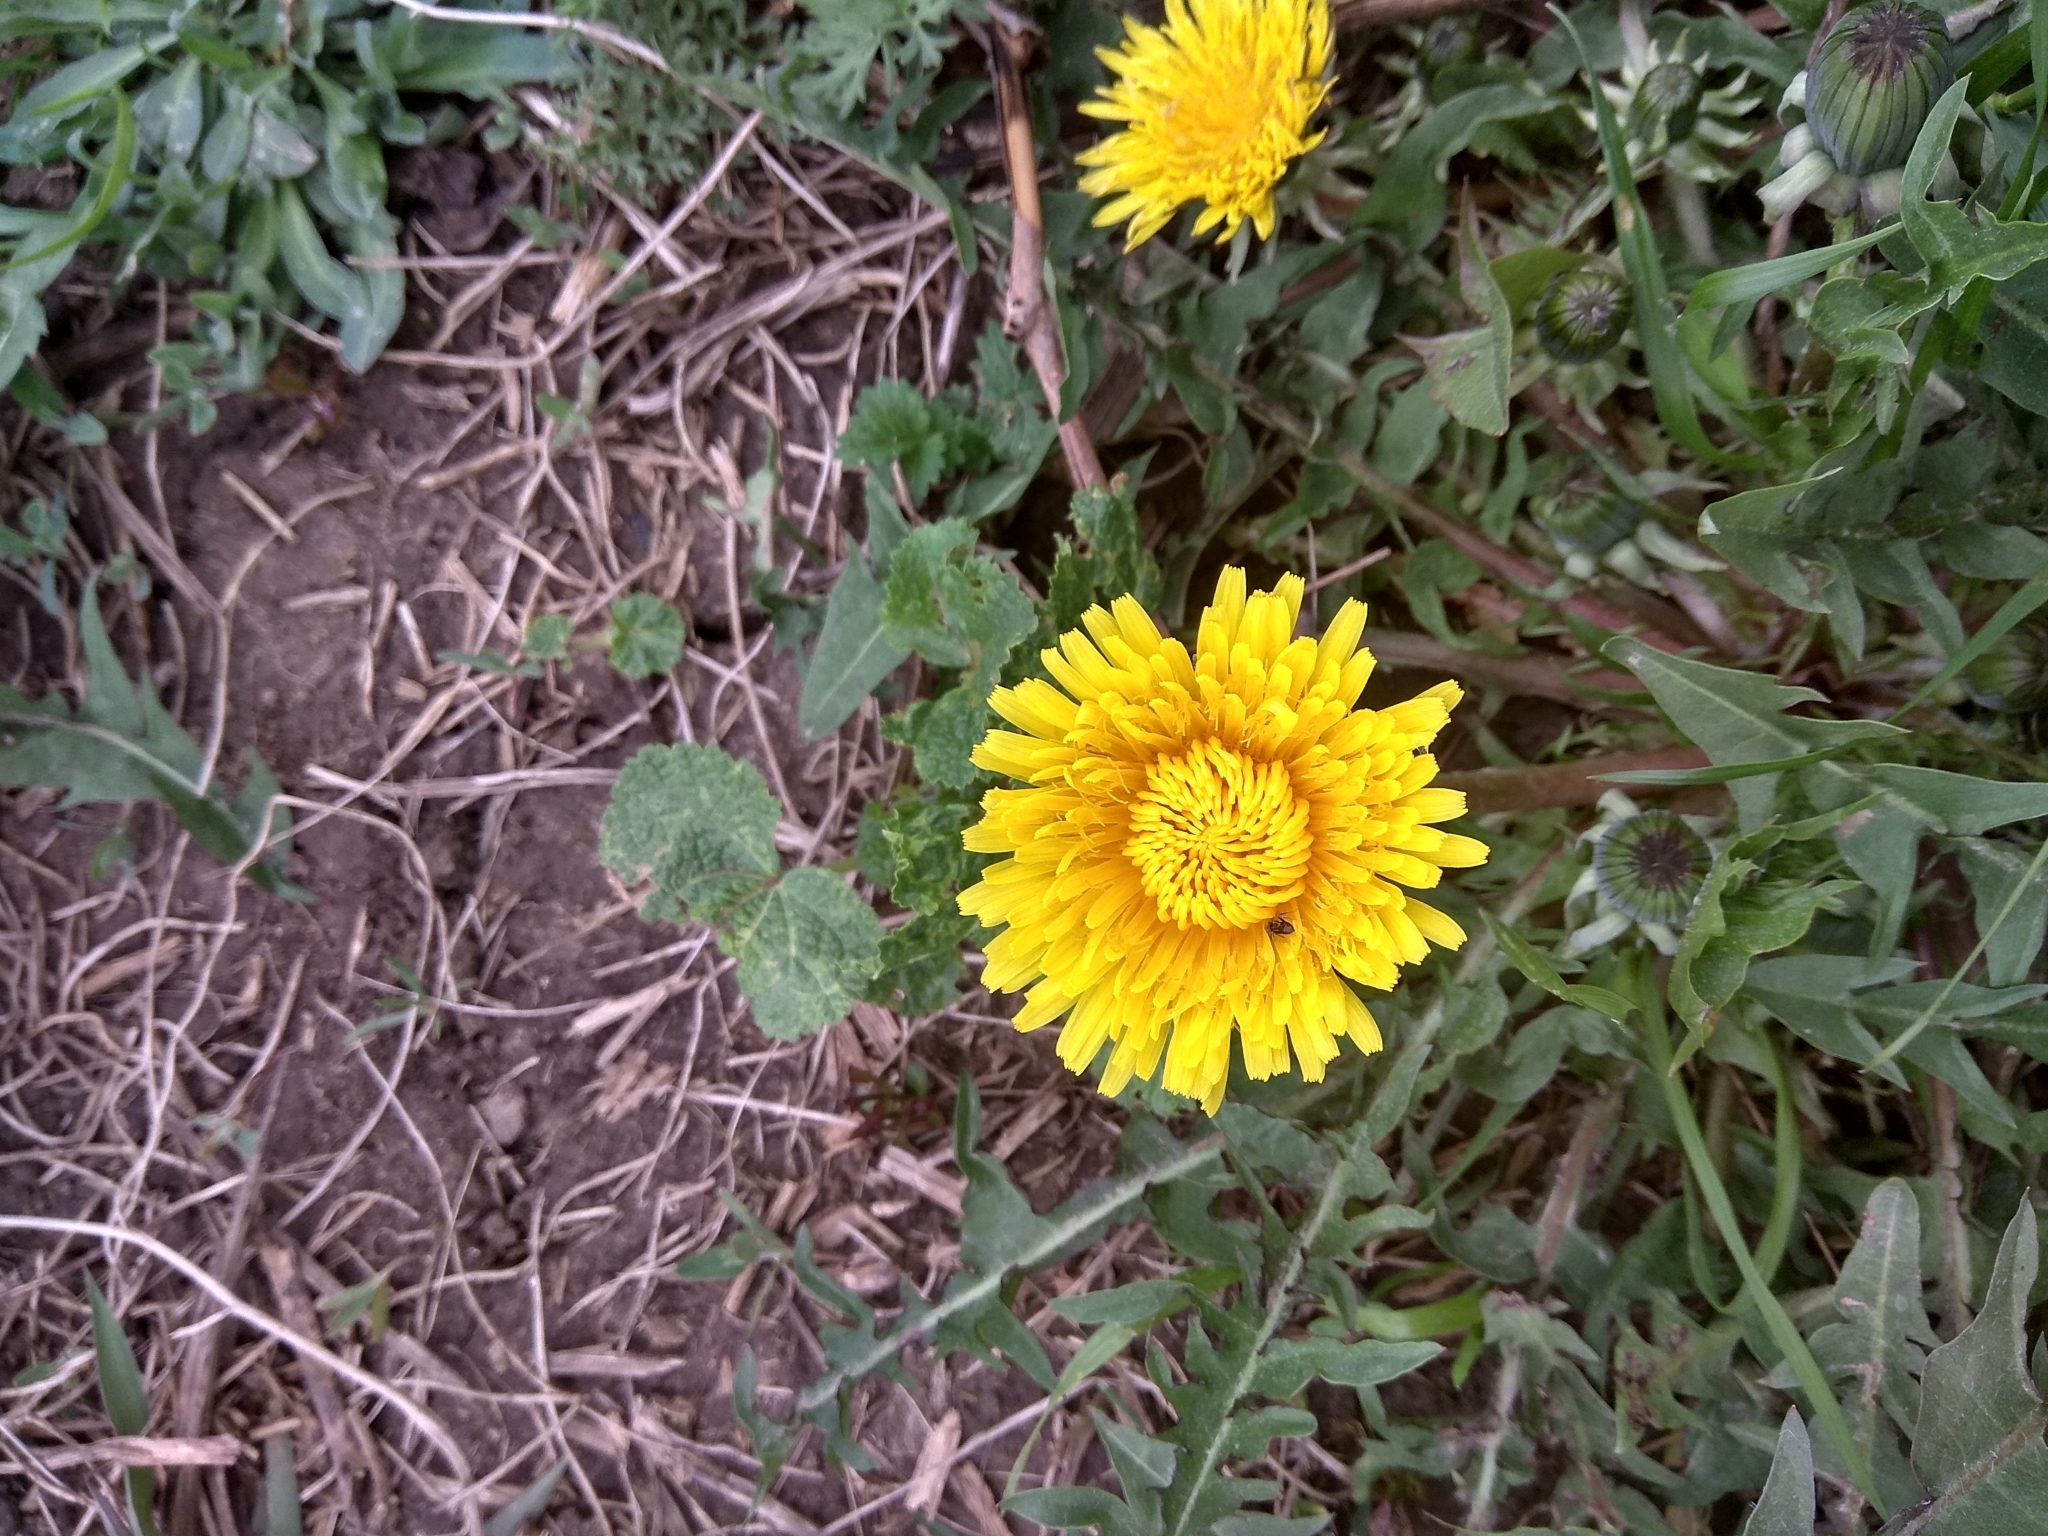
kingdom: Plantae
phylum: Tracheophyta
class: Magnoliopsida
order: Asterales
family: Asteraceae
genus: Taraxacum
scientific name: Taraxacum officinale
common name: Common dandelion
